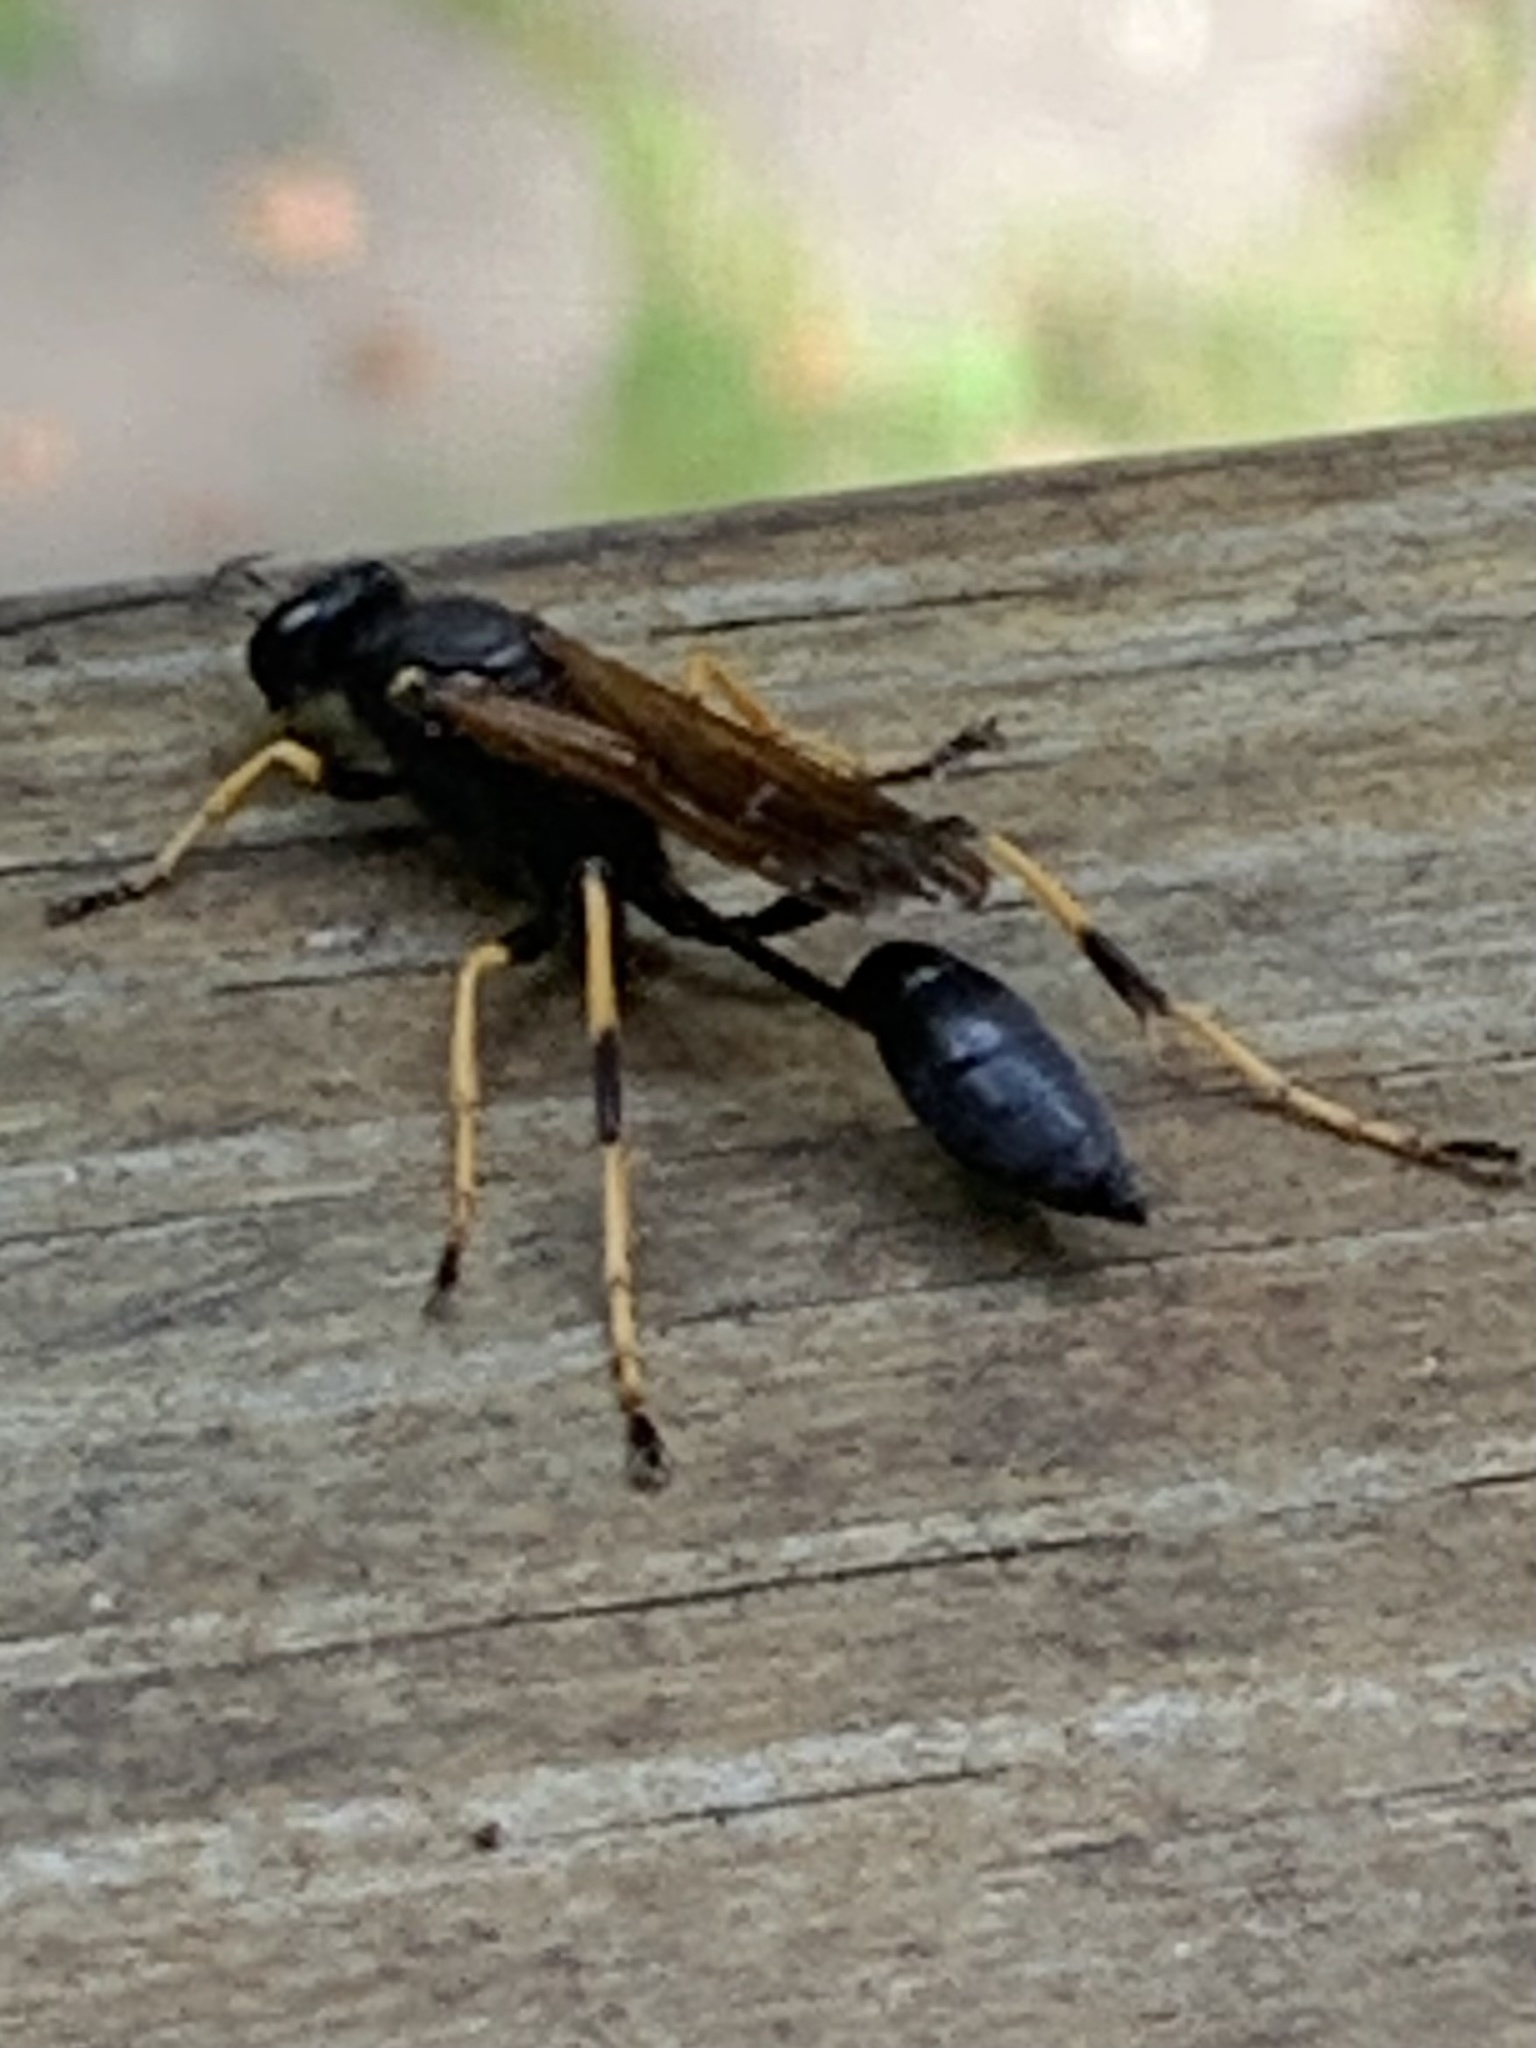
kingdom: Animalia
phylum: Arthropoda
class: Insecta
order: Hymenoptera
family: Sphecidae
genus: Sceliphron
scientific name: Sceliphron caementarium
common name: Mud dauber
